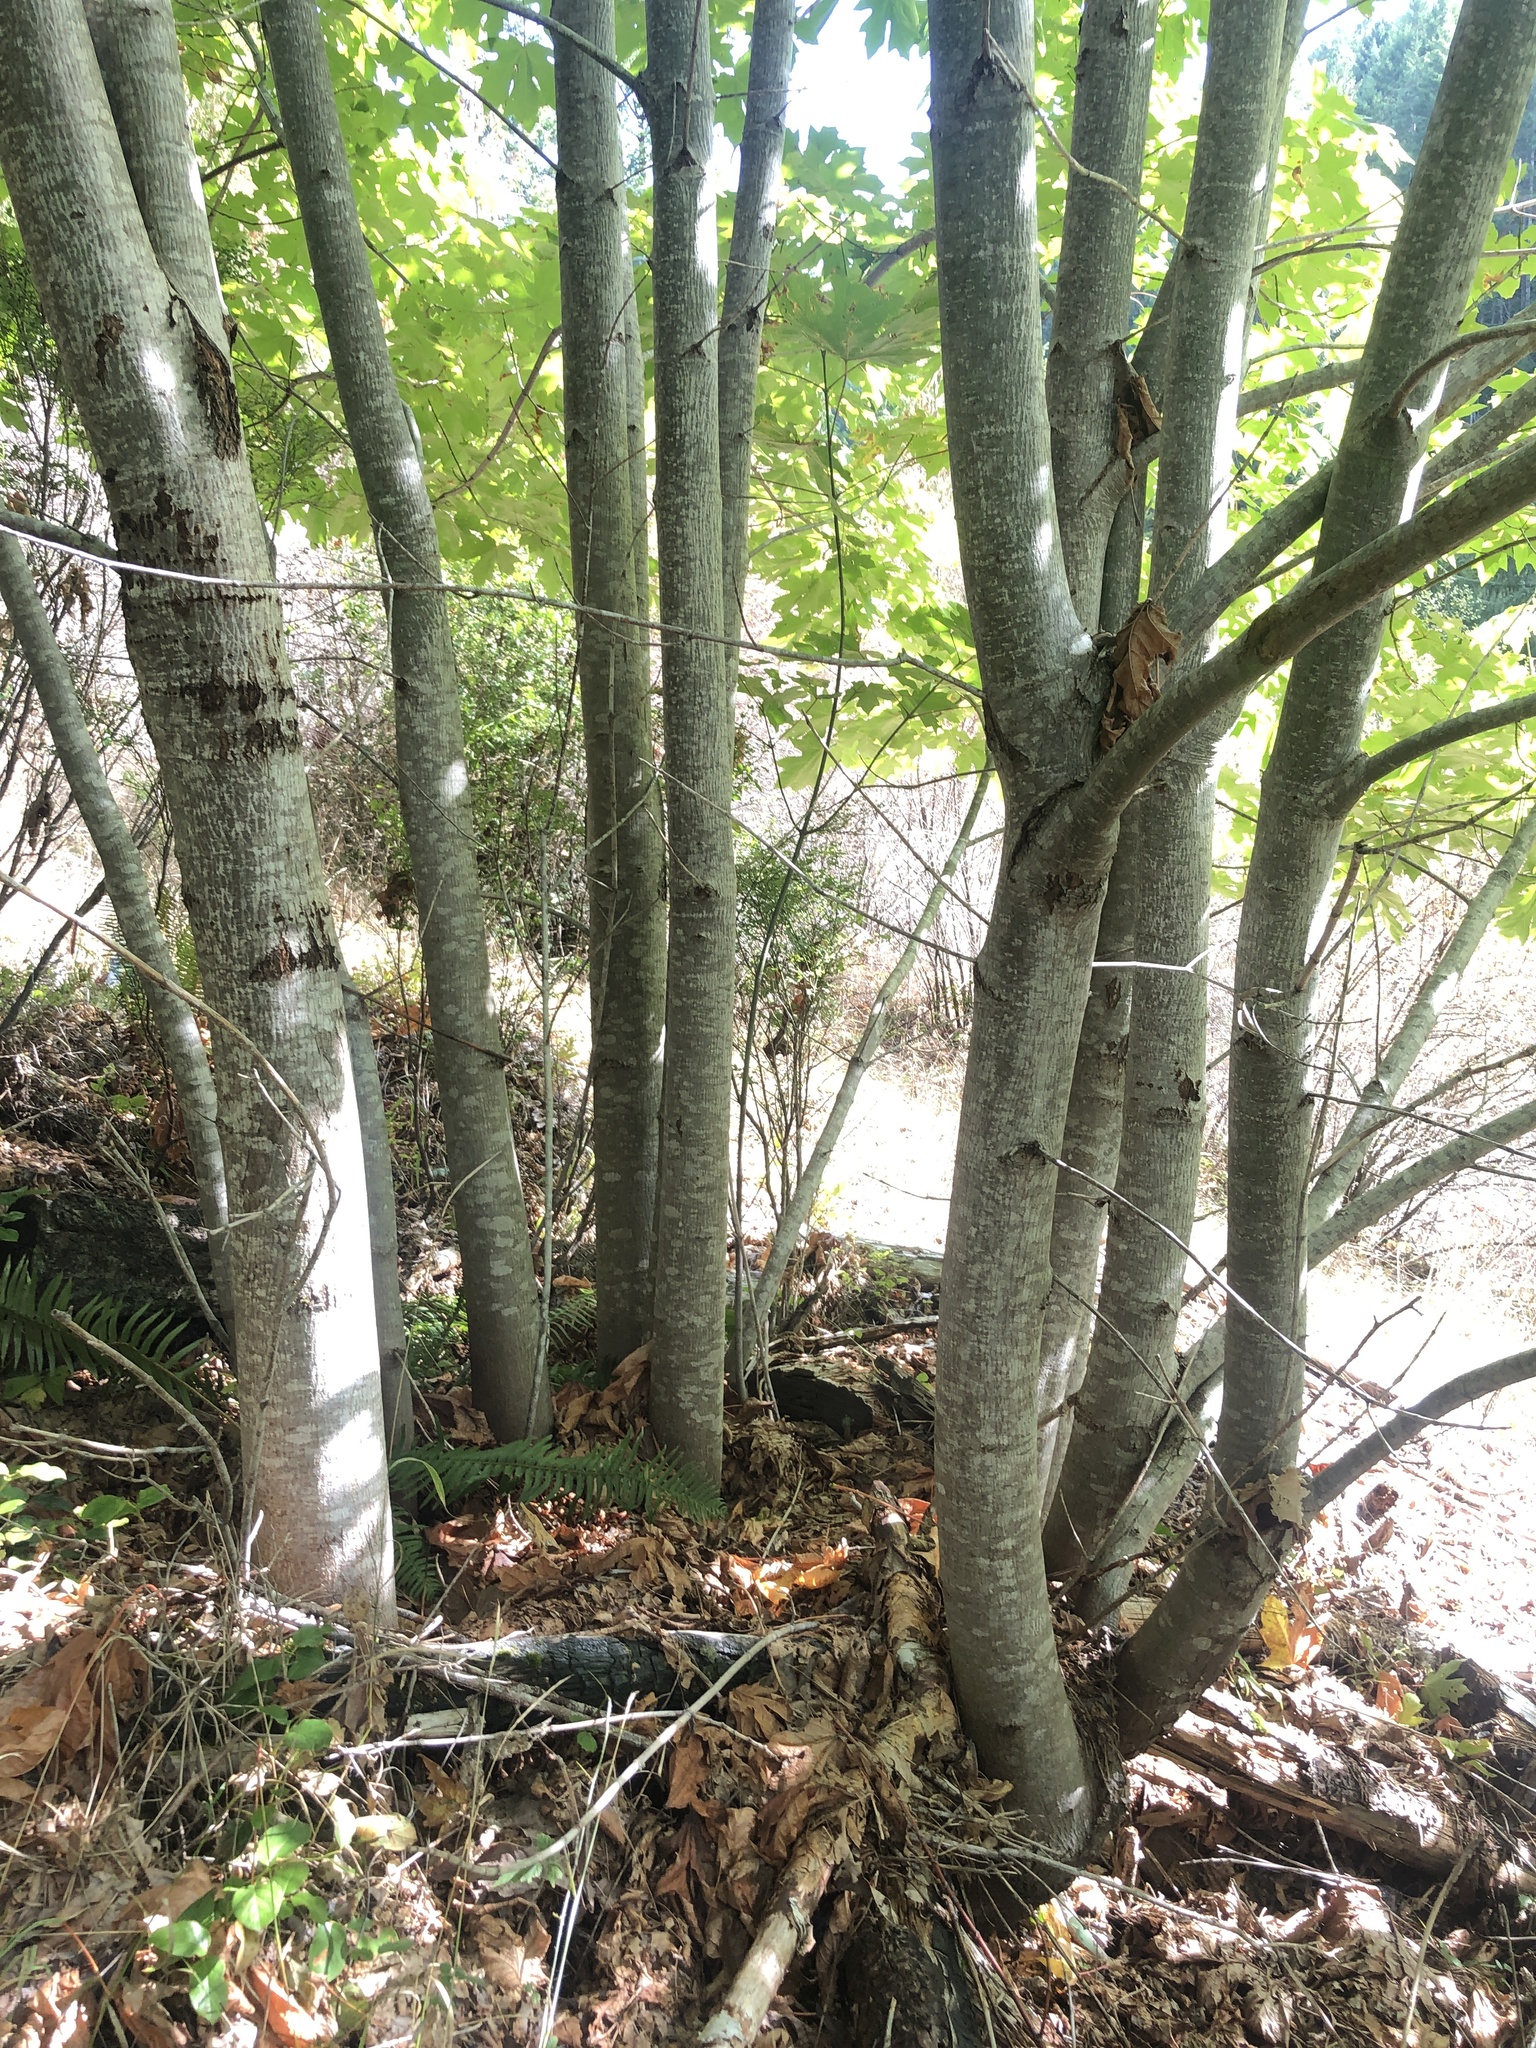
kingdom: Plantae
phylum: Tracheophyta
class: Magnoliopsida
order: Sapindales
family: Sapindaceae
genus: Acer
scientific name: Acer macrophyllum
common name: Oregon maple
